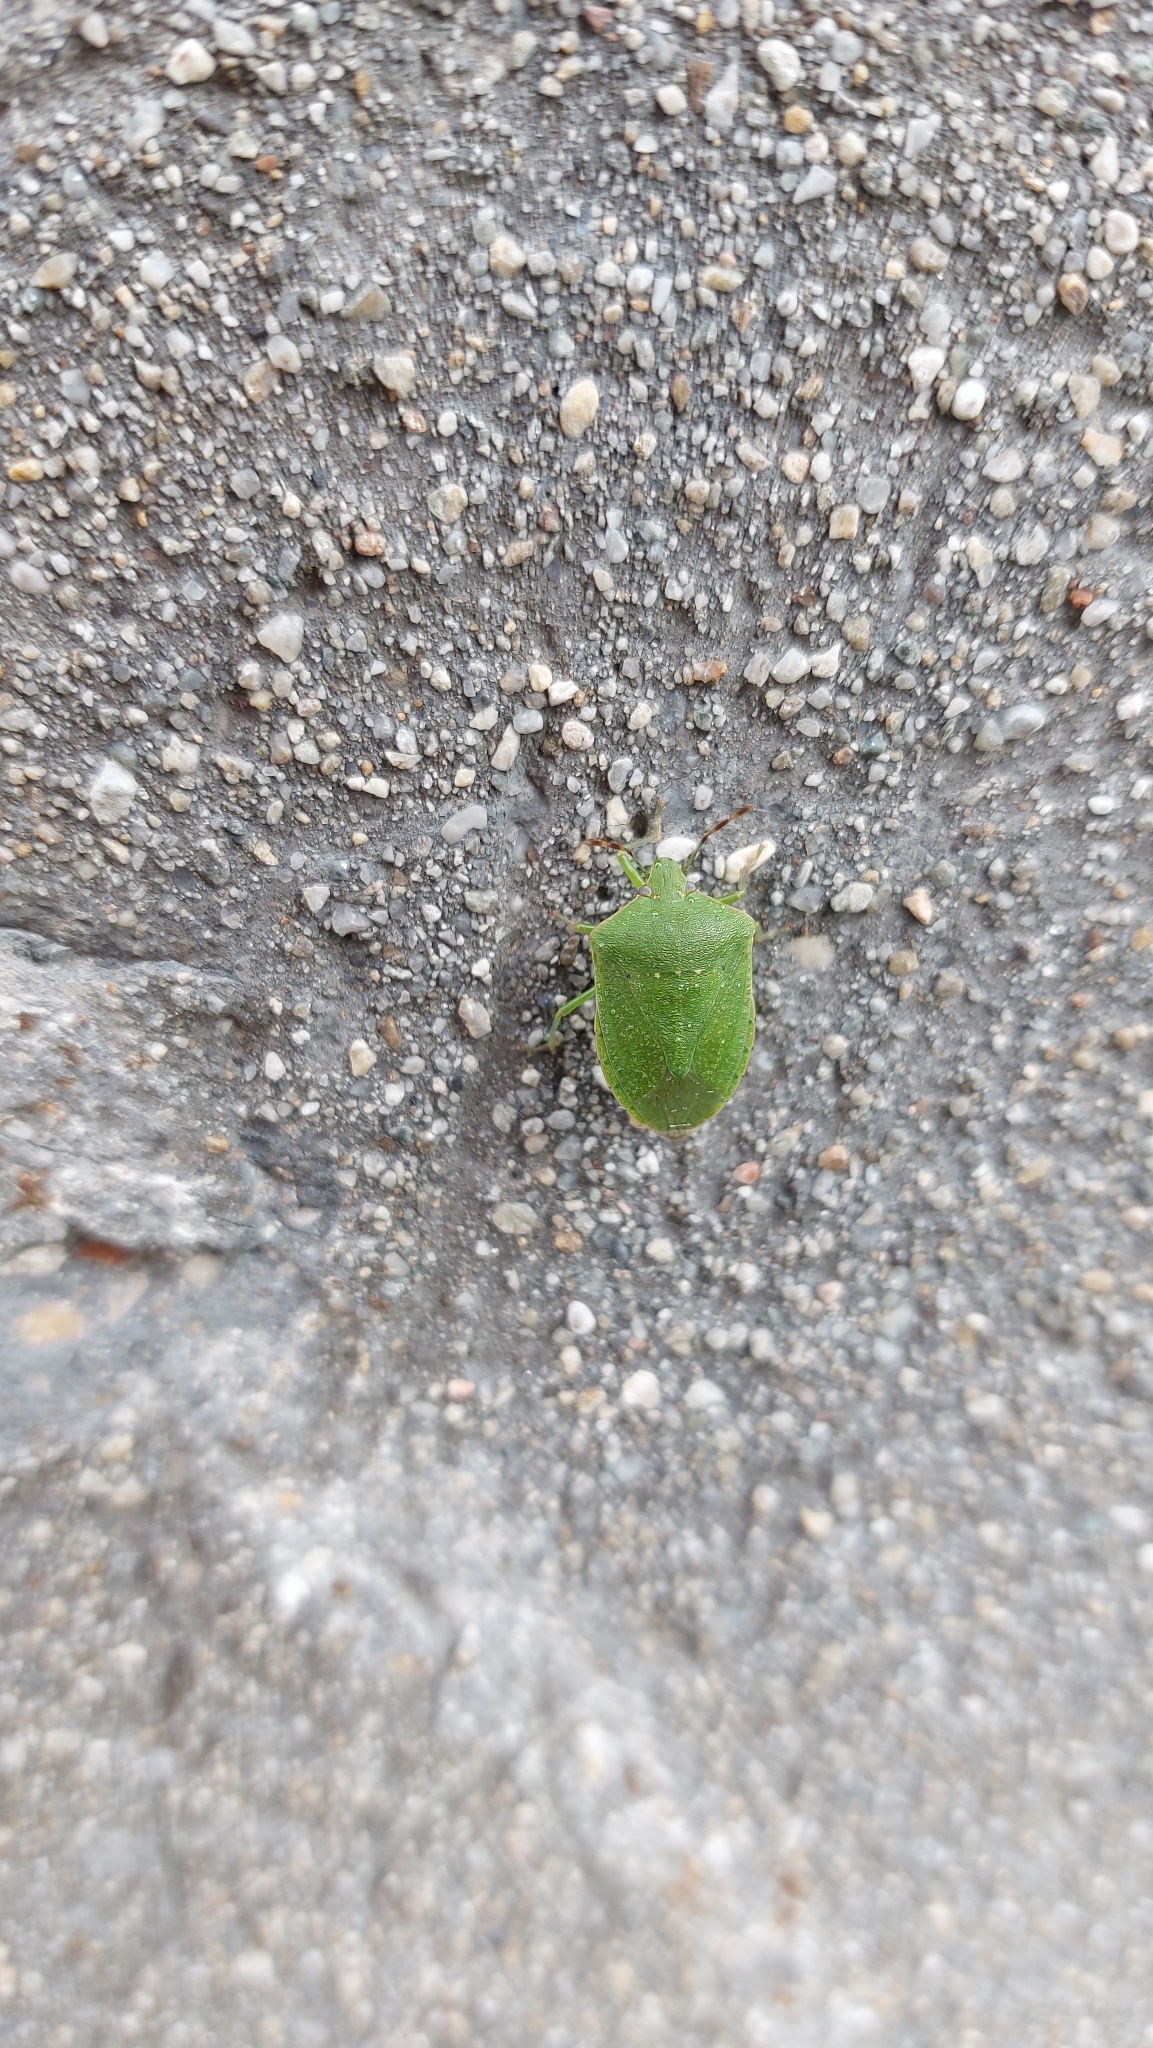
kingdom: Animalia
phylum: Arthropoda
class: Insecta
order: Hemiptera
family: Pentatomidae
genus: Nezara
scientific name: Nezara viridula
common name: Southern green stink bug
